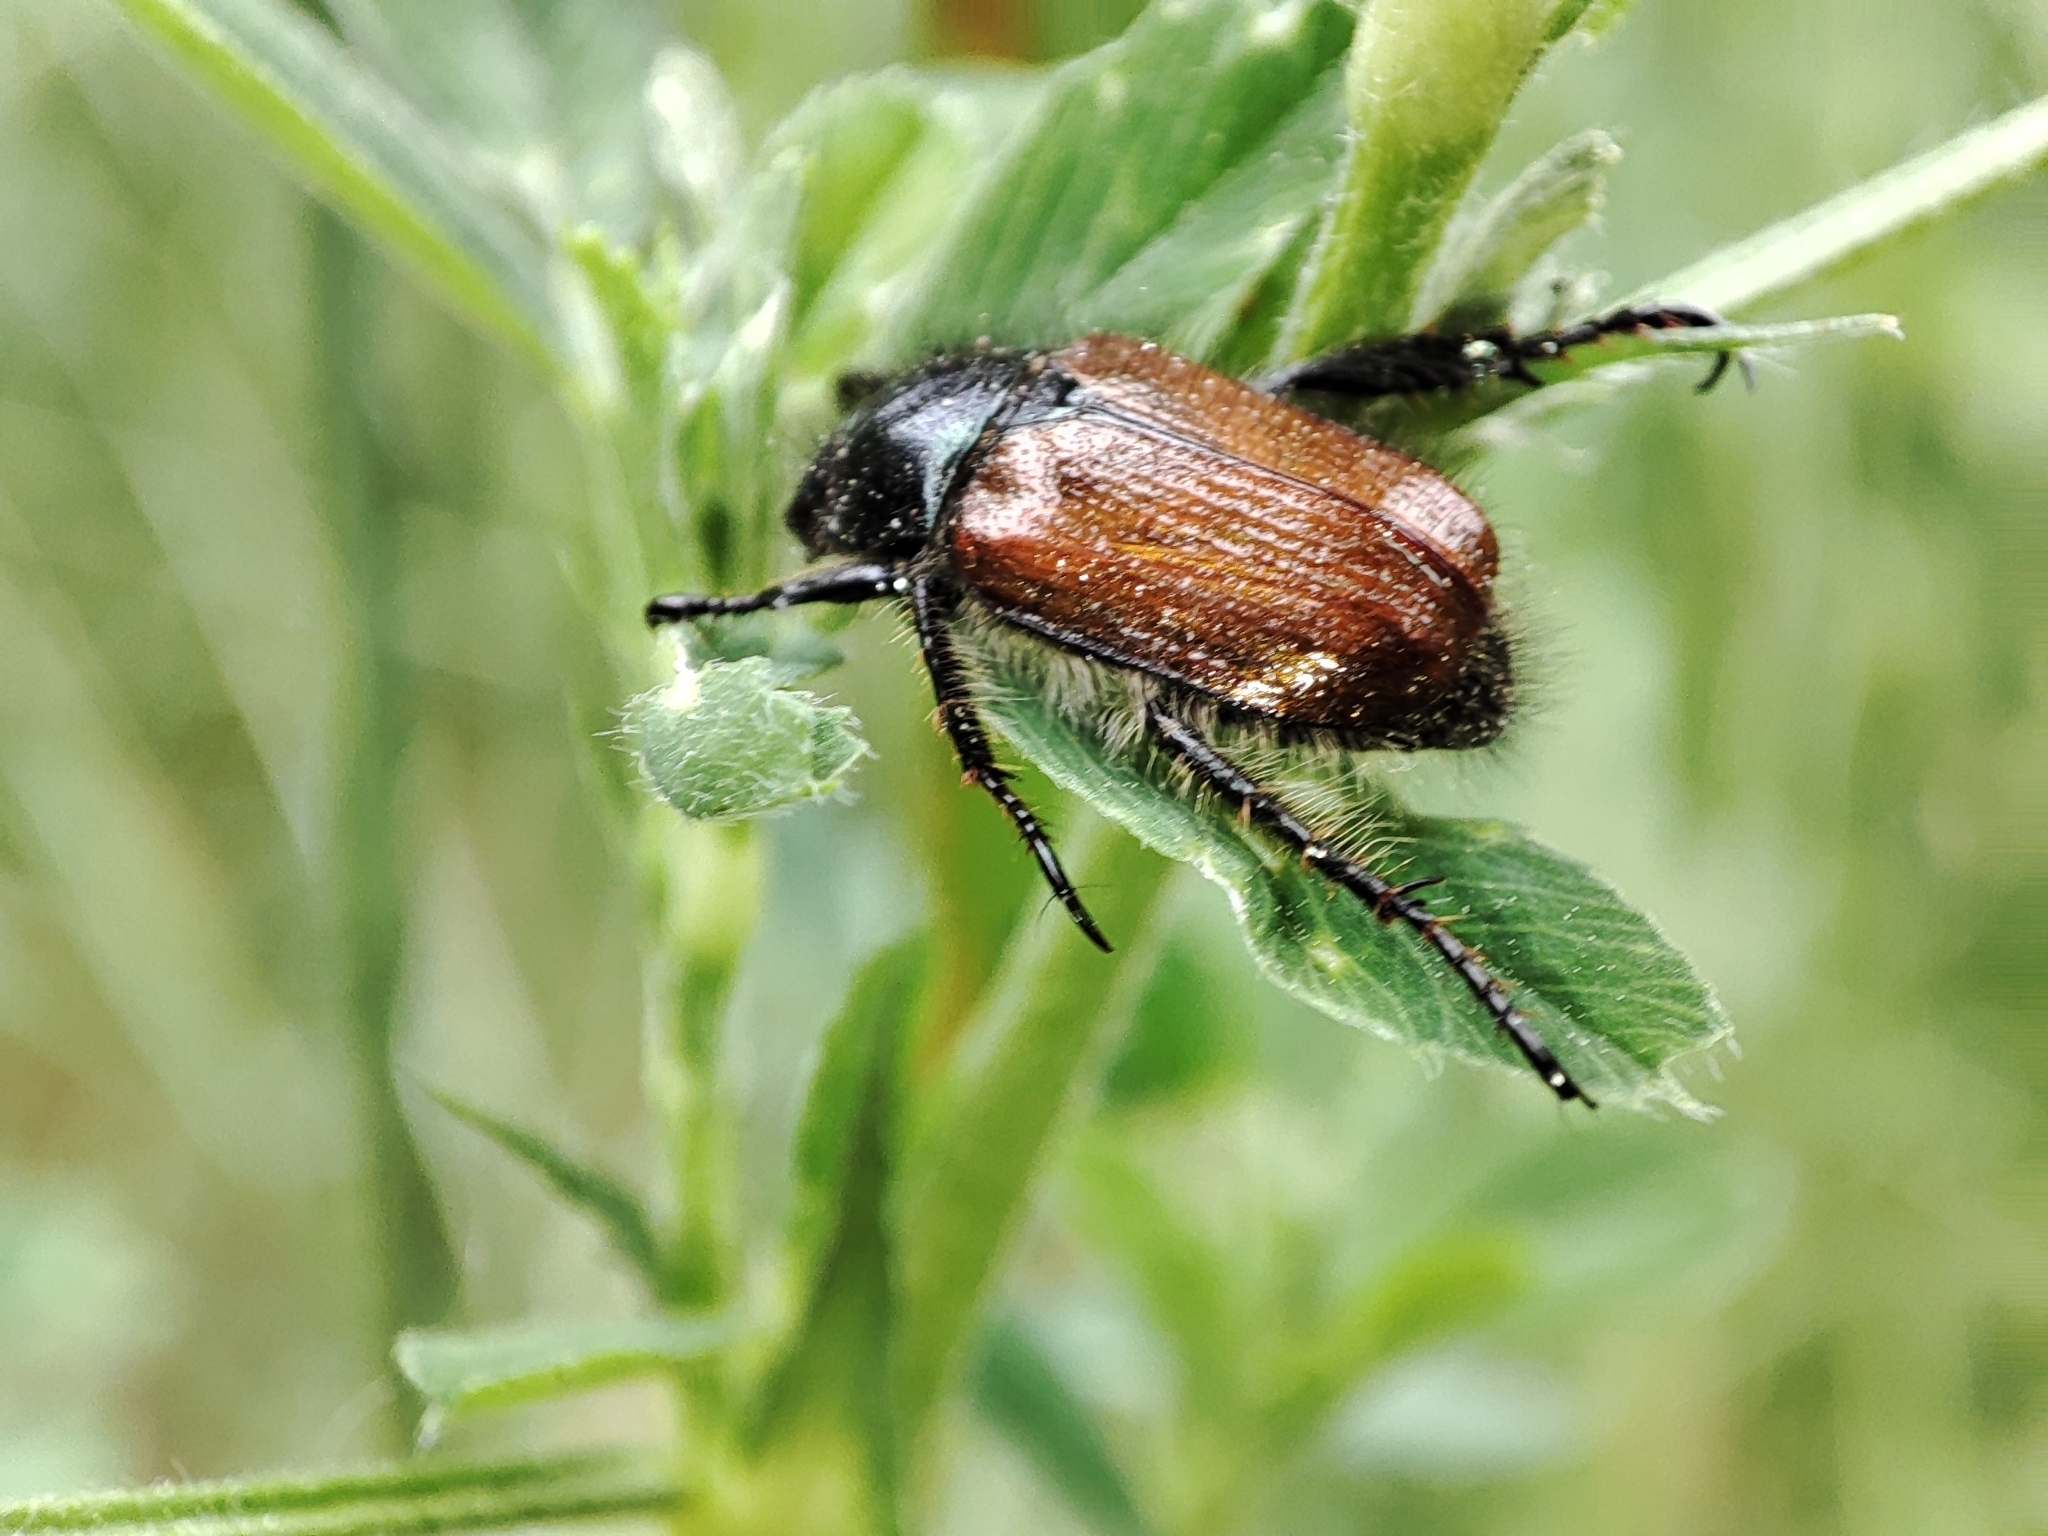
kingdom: Animalia
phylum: Arthropoda
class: Insecta
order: Coleoptera
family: Scarabaeidae
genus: Phyllopertha
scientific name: Phyllopertha horticola
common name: Garden chafer
